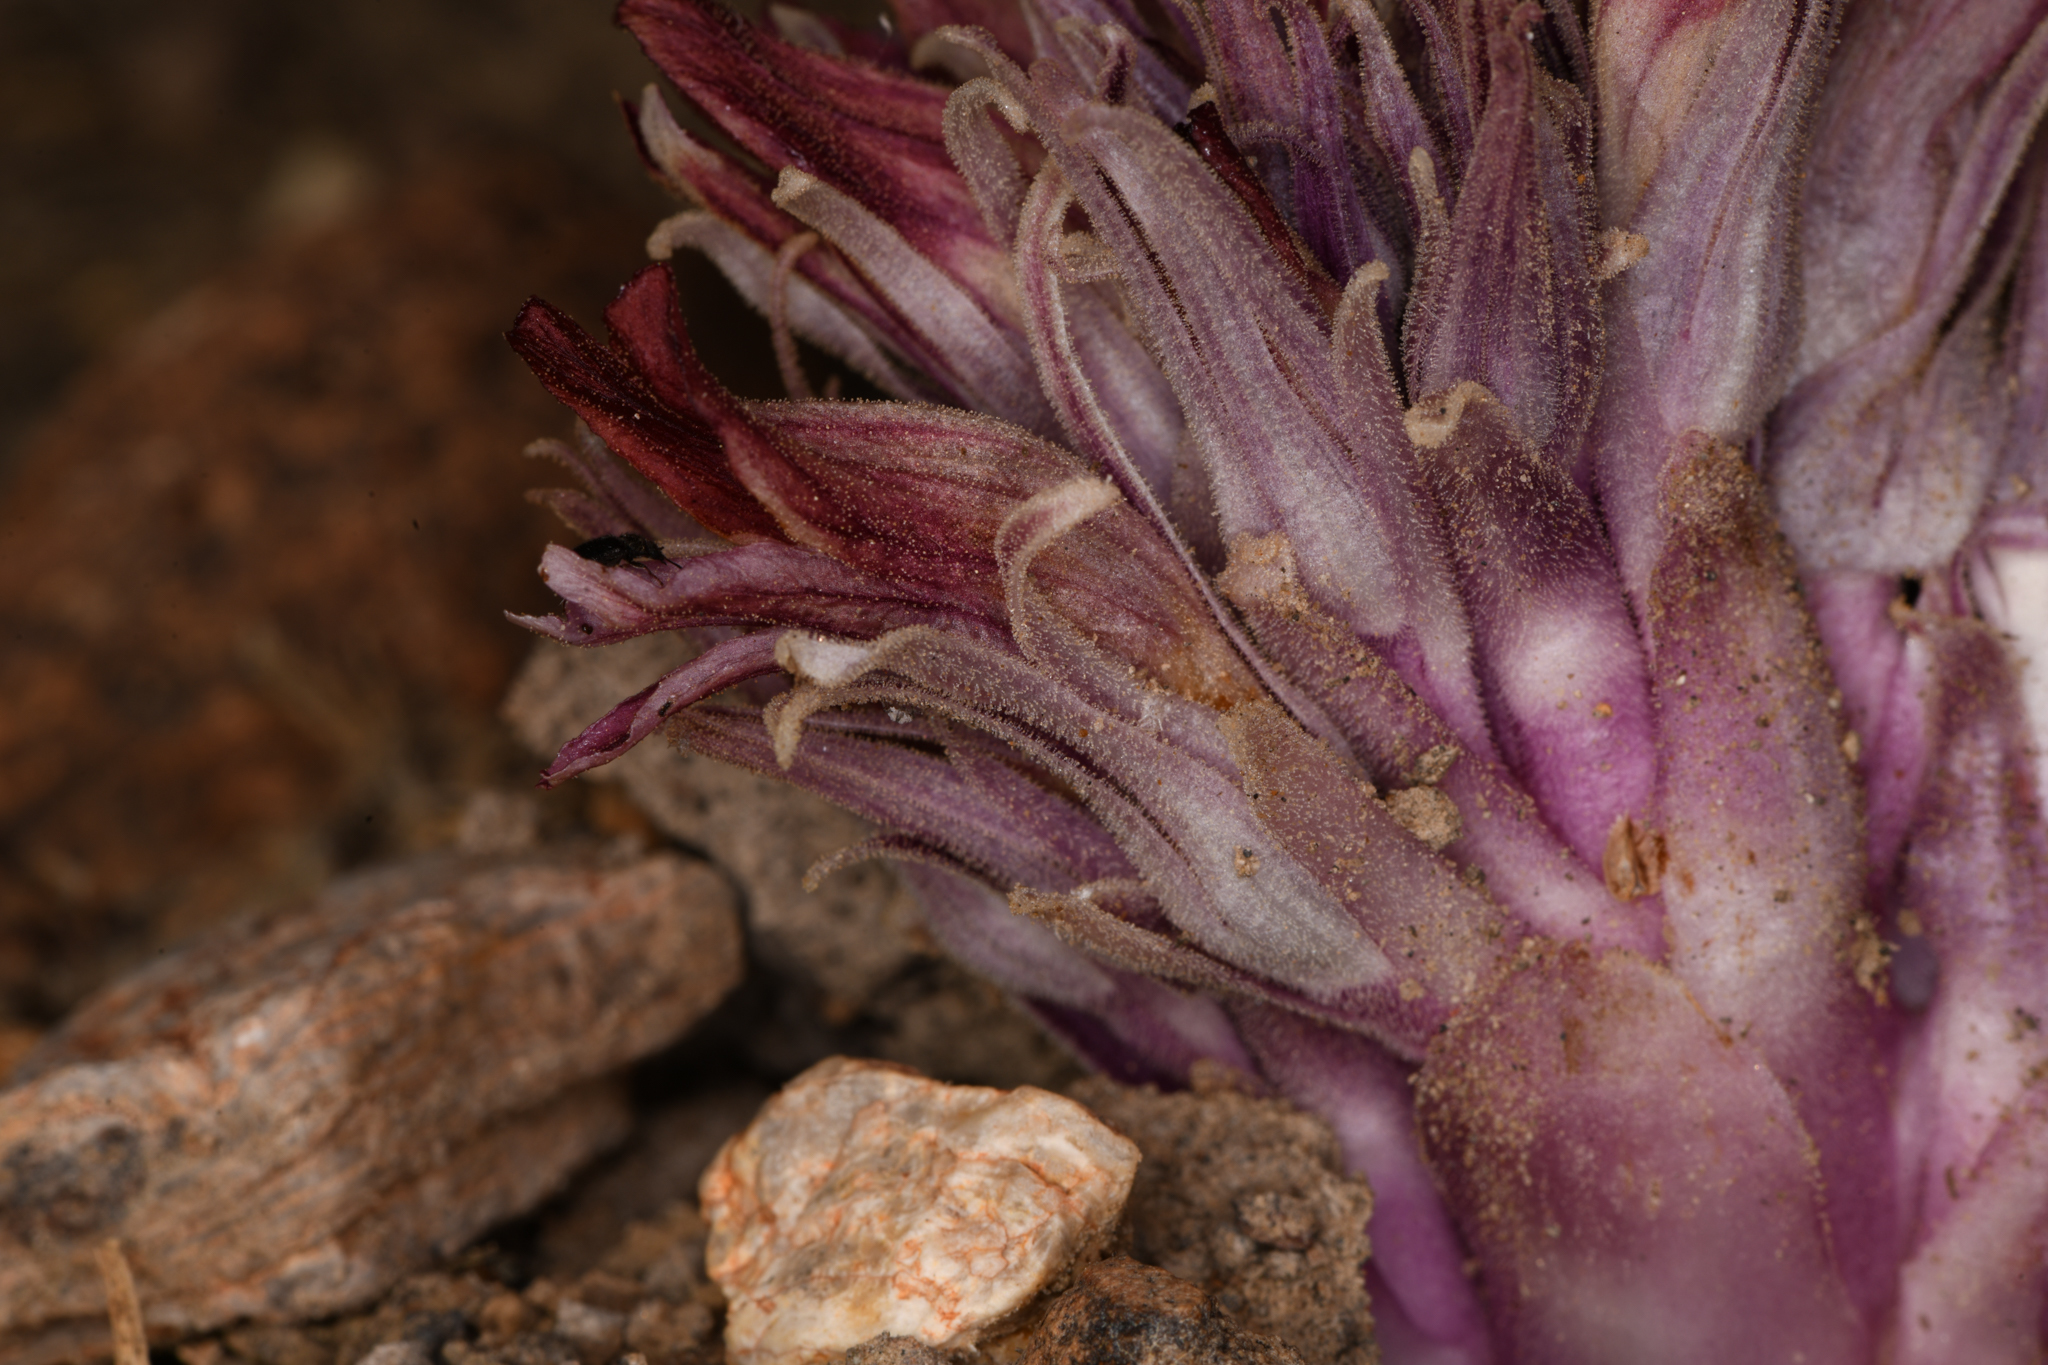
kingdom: Plantae
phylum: Tracheophyta
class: Magnoliopsida
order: Lamiales
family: Orobanchaceae
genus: Aphyllon
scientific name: Aphyllon corymbosum
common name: Flat-top broomrape
